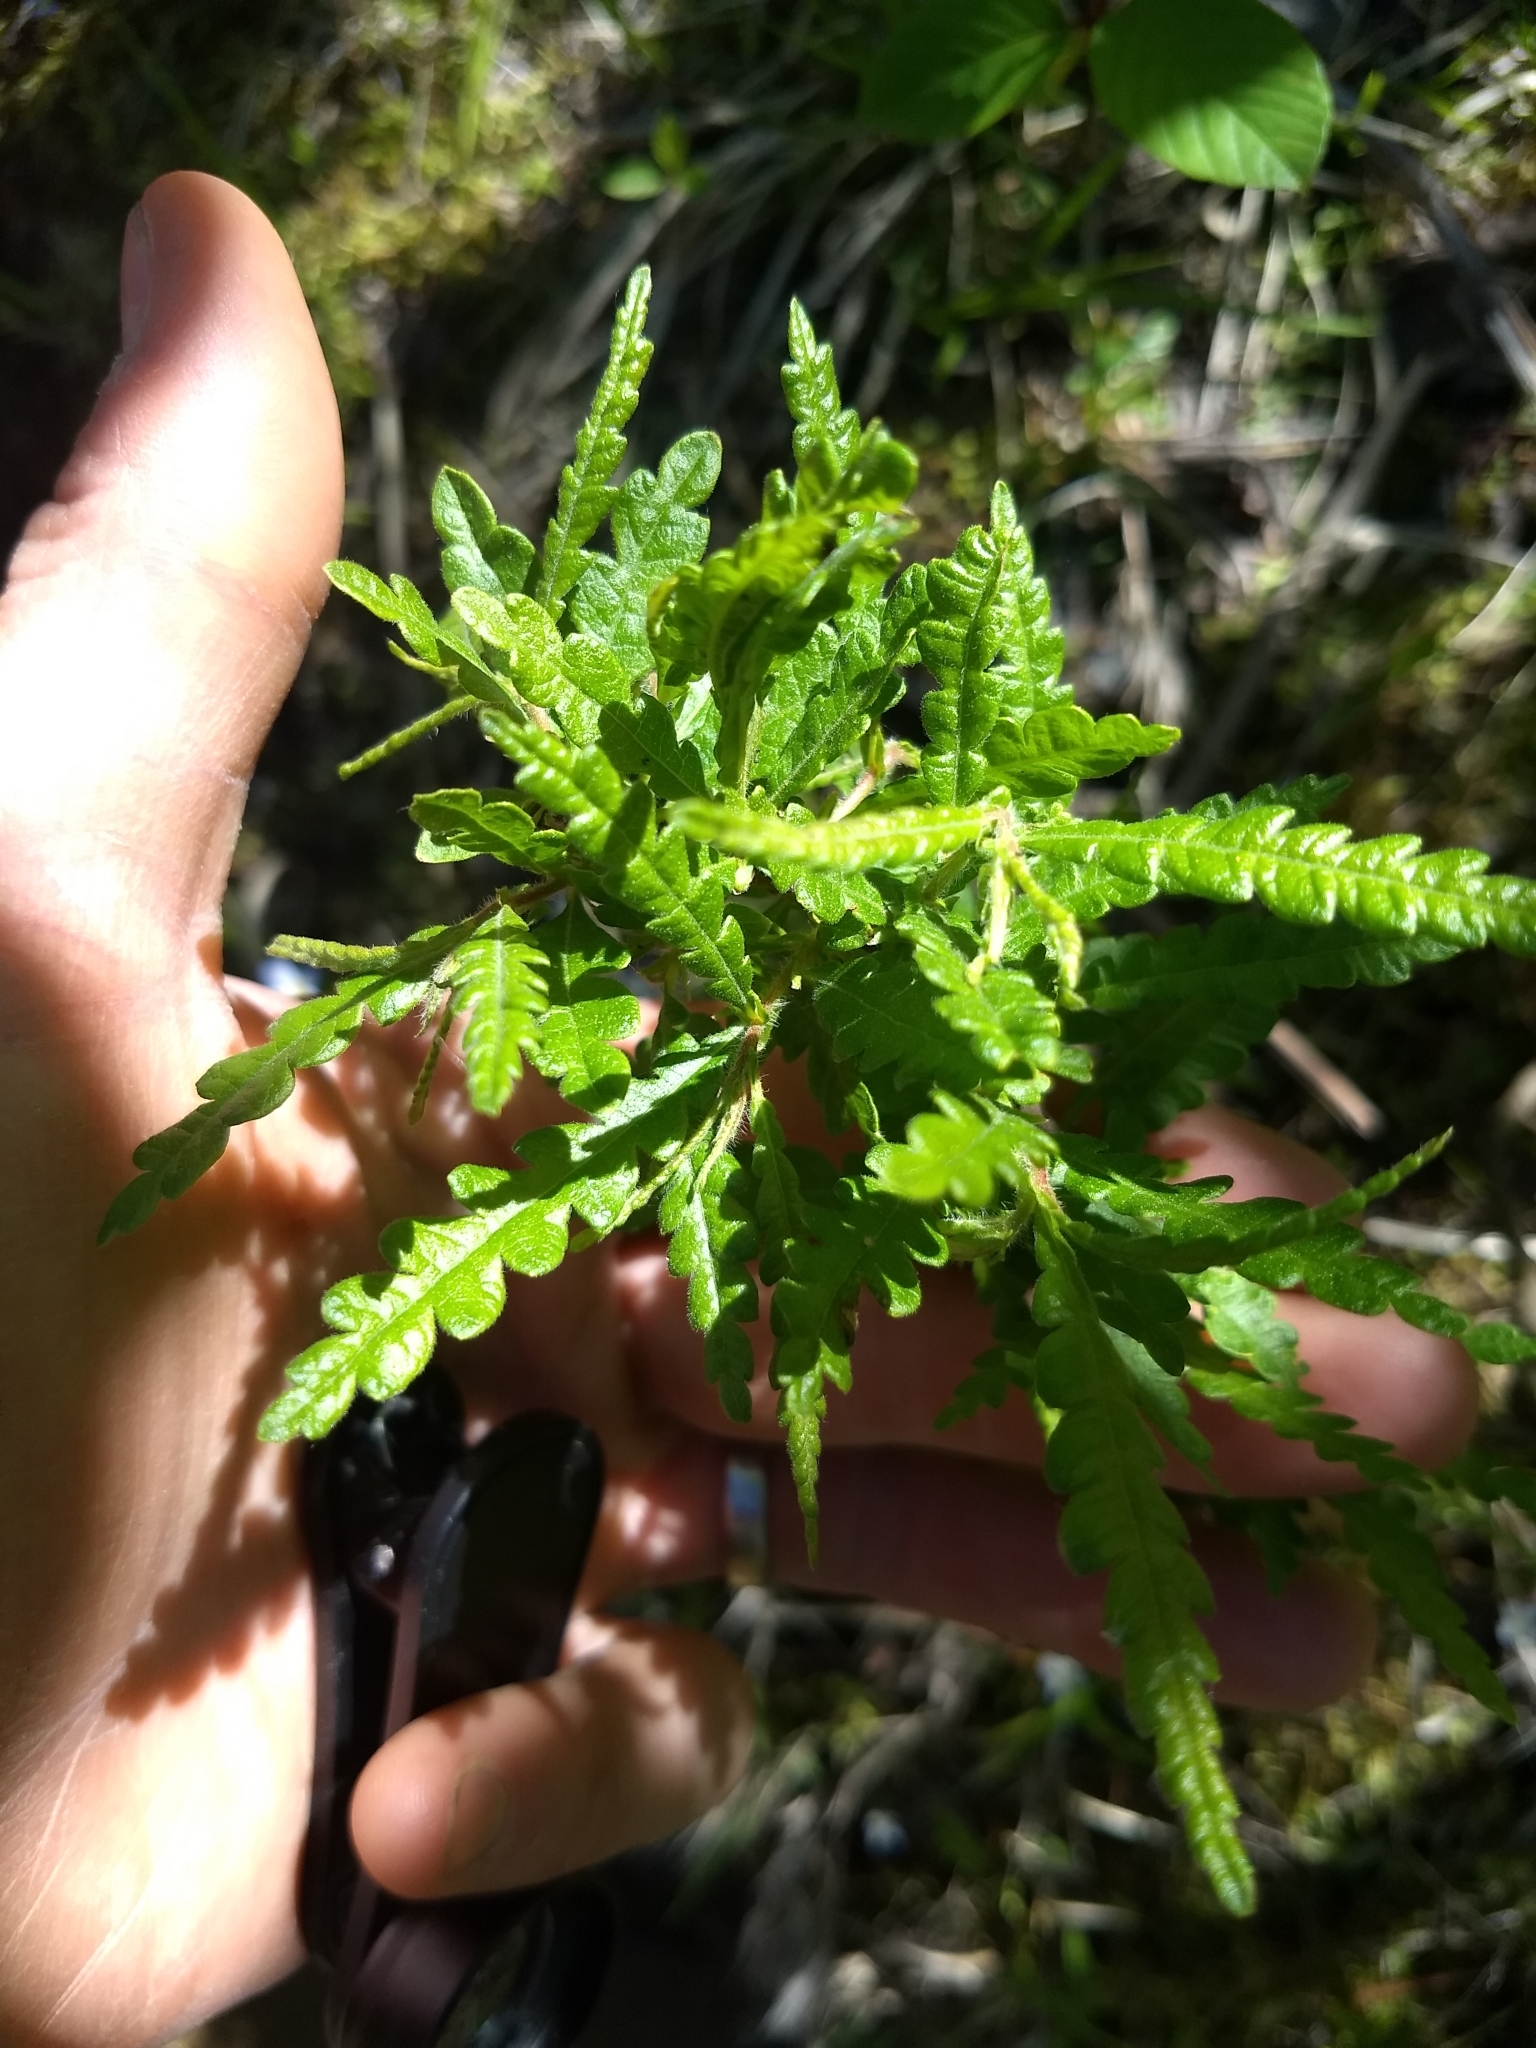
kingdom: Plantae
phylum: Tracheophyta
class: Magnoliopsida
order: Fagales
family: Myricaceae
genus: Comptonia
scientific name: Comptonia peregrina
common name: Sweet-fern
